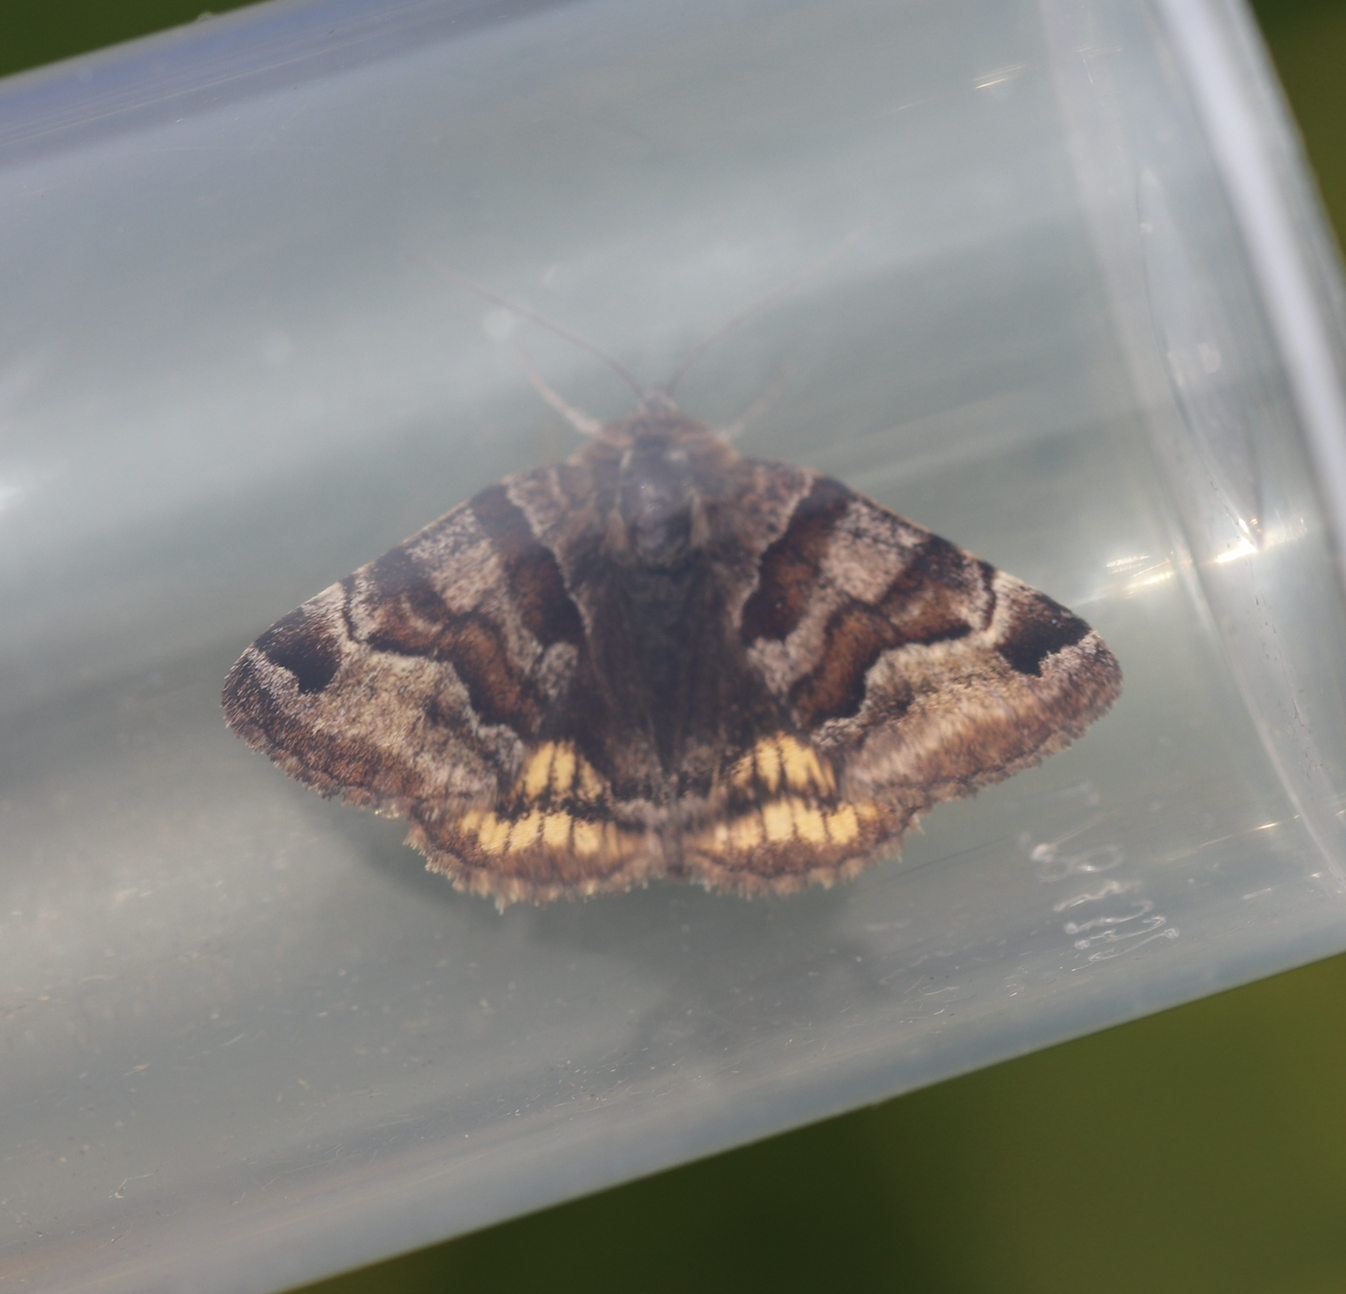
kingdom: Animalia
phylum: Arthropoda
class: Insecta
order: Lepidoptera
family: Erebidae
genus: Euclidia
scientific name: Euclidia glyphica
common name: Burnet companion
